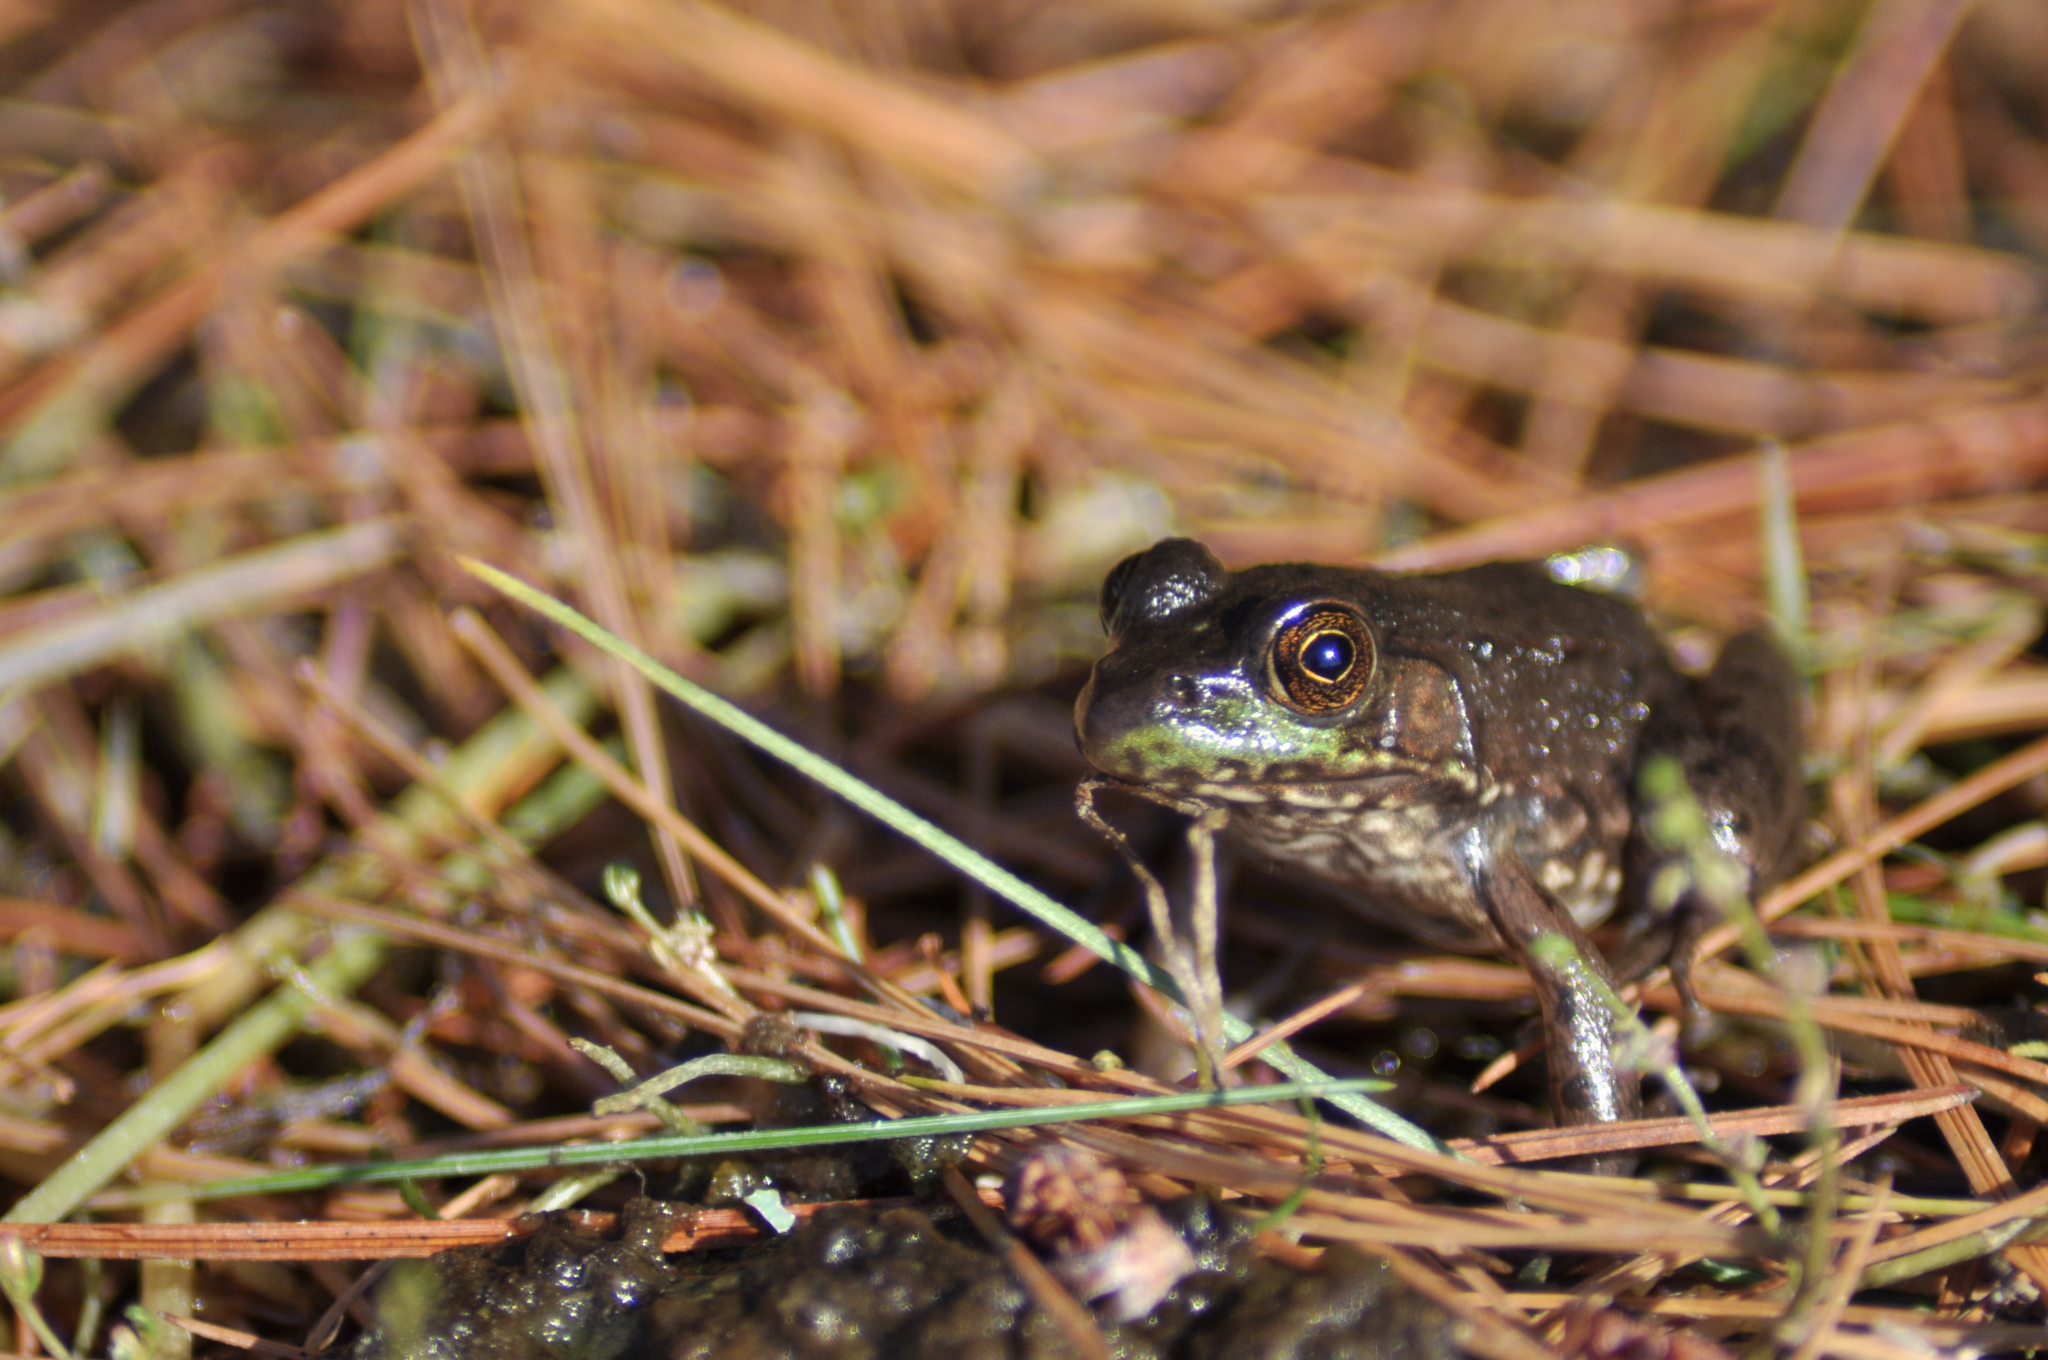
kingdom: Animalia
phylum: Chordata
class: Amphibia
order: Anura
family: Ranidae
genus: Lithobates
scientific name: Lithobates clamitans
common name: Green frog
